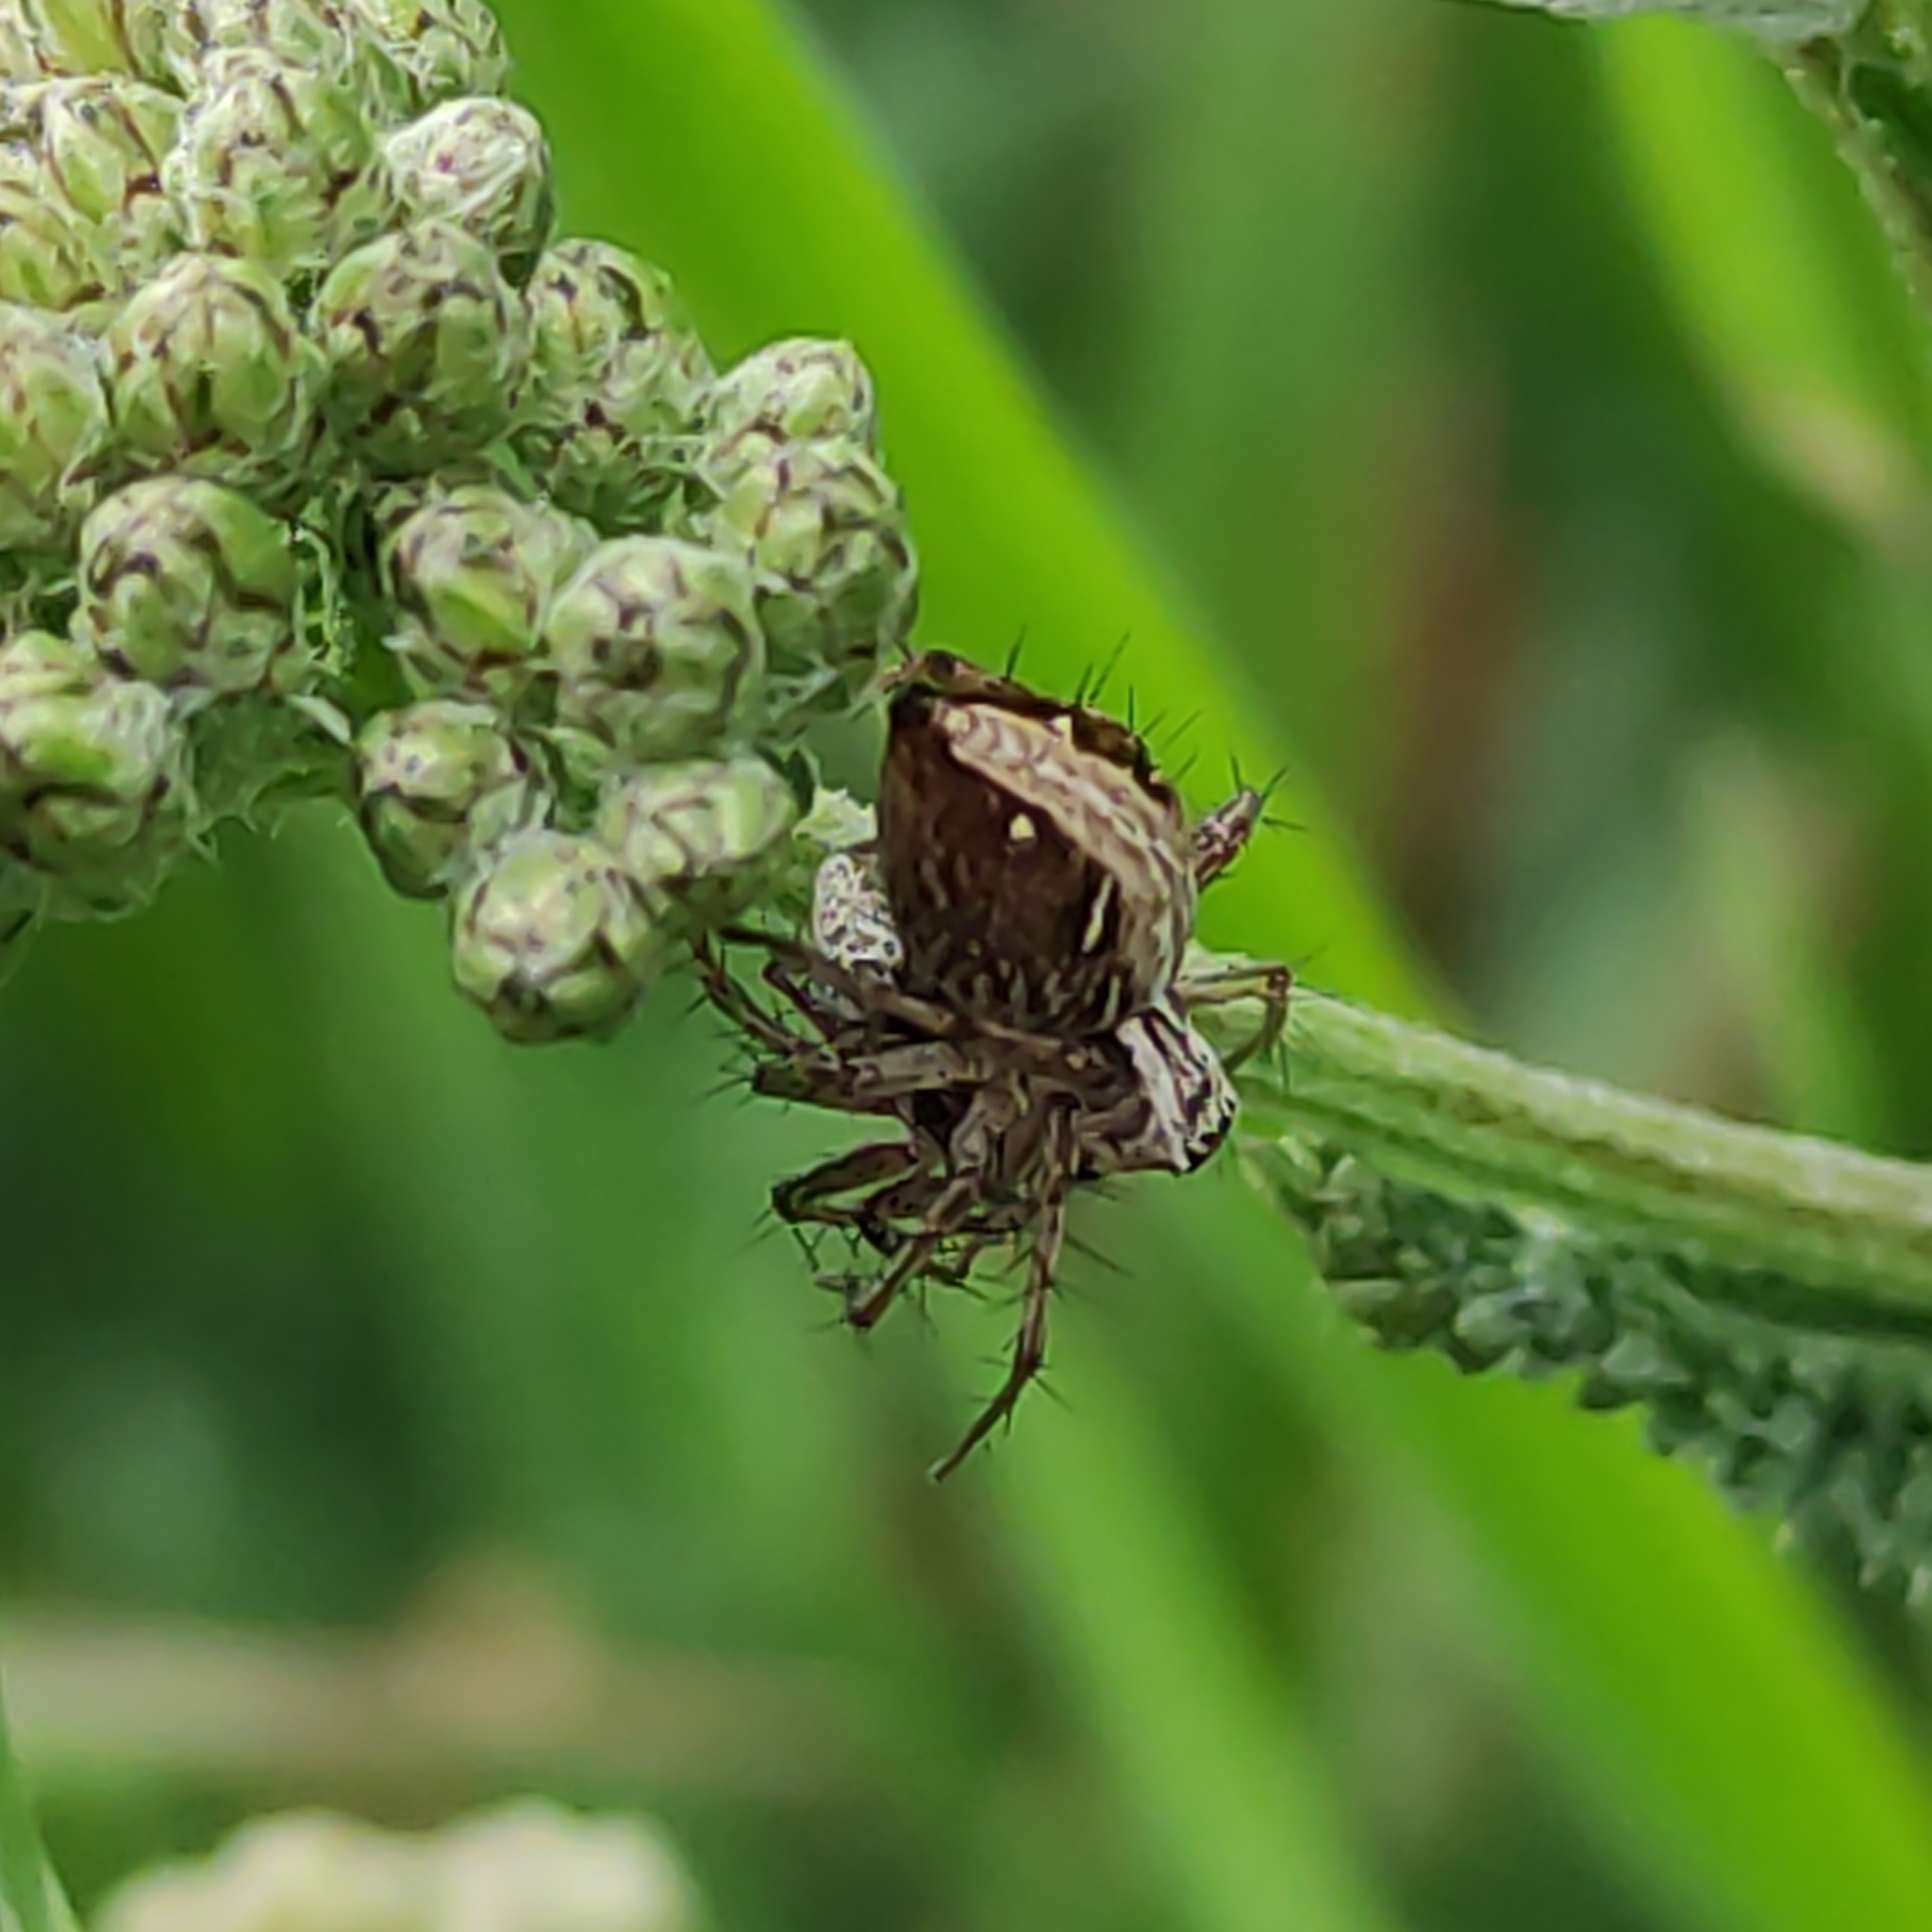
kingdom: Animalia
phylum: Arthropoda
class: Arachnida
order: Araneae
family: Oxyopidae
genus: Oxyopes
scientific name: Oxyopes gracilipes
